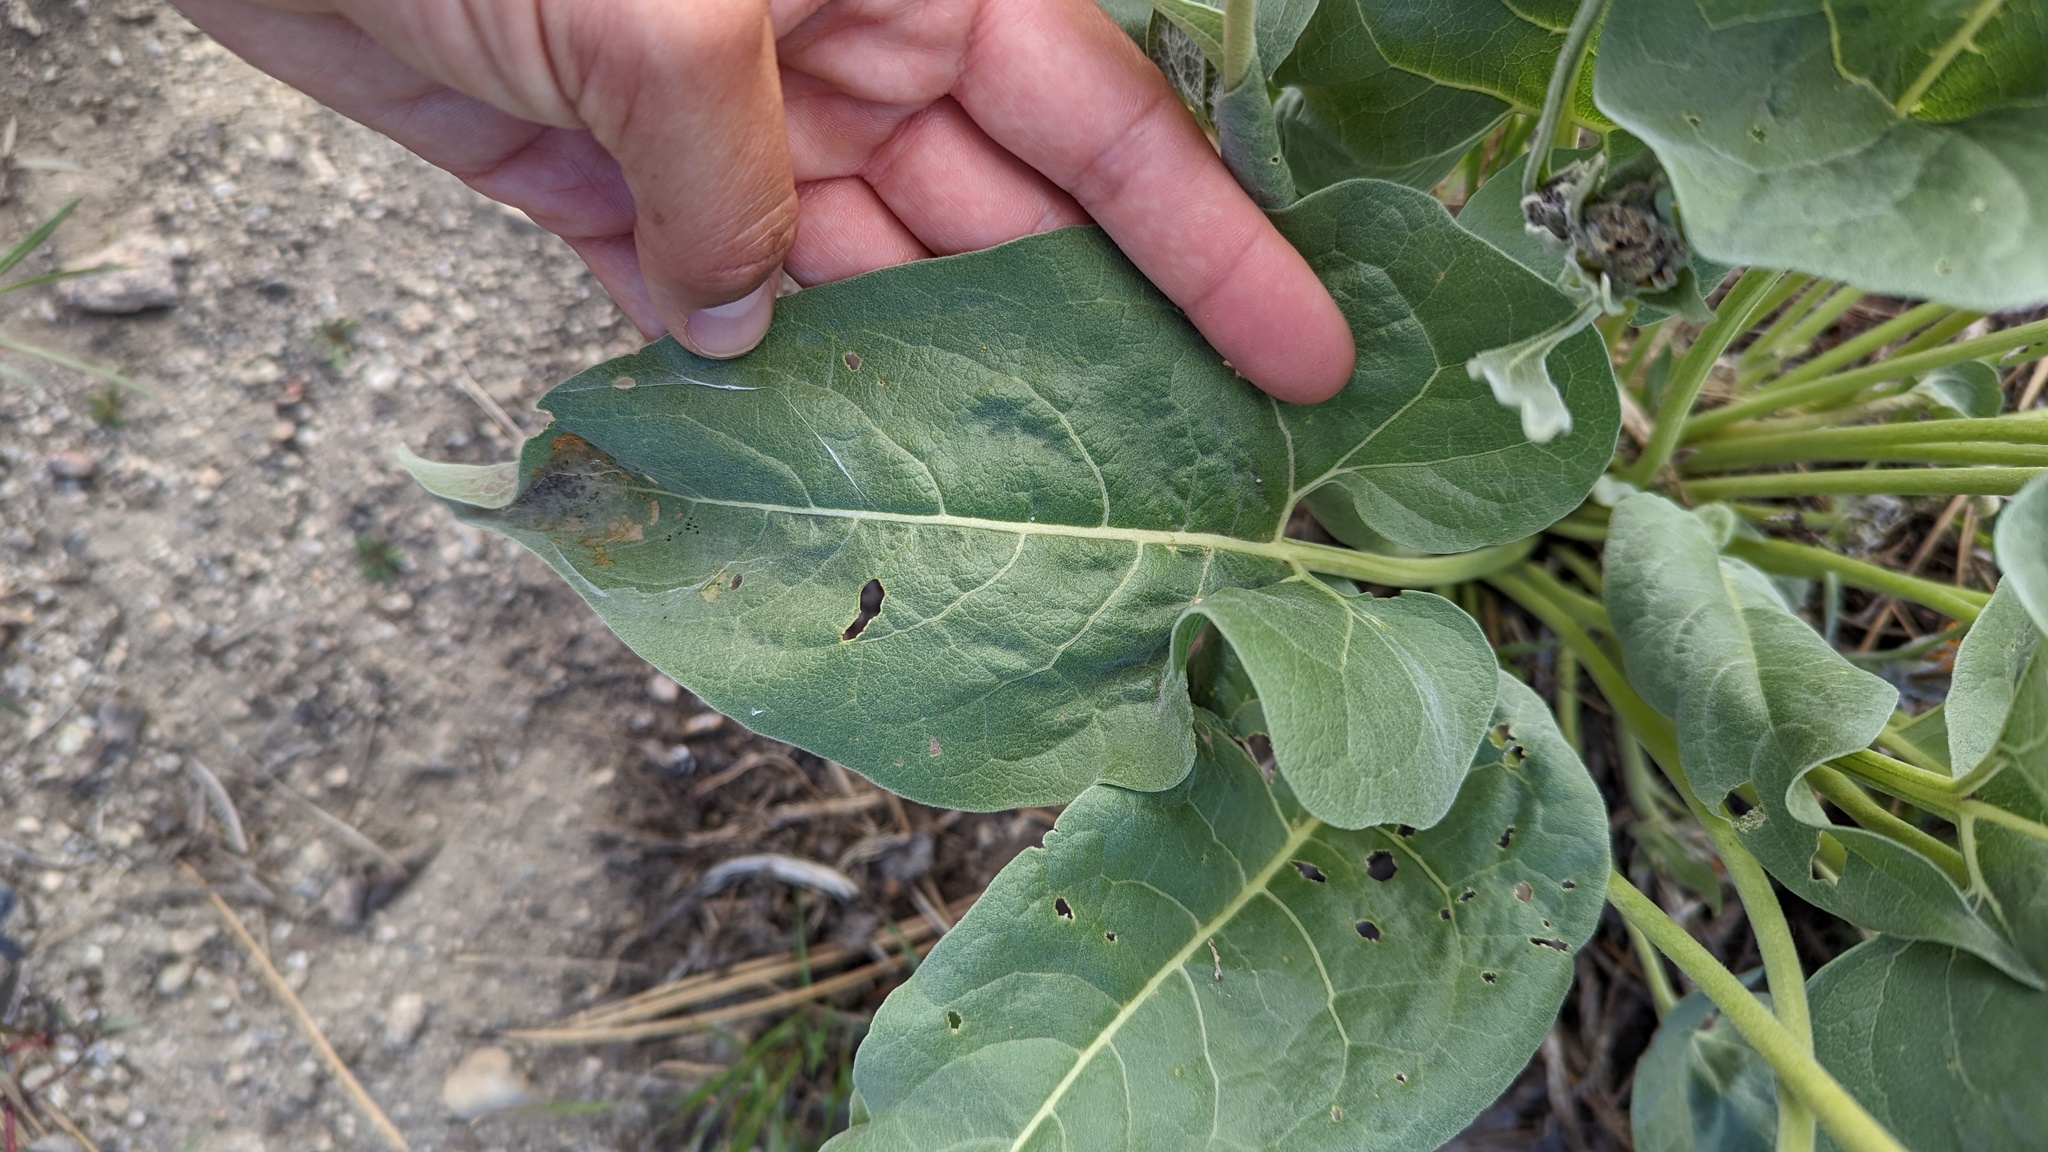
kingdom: Plantae
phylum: Tracheophyta
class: Magnoliopsida
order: Asterales
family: Asteraceae
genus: Wyethia
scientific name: Wyethia sagittata
